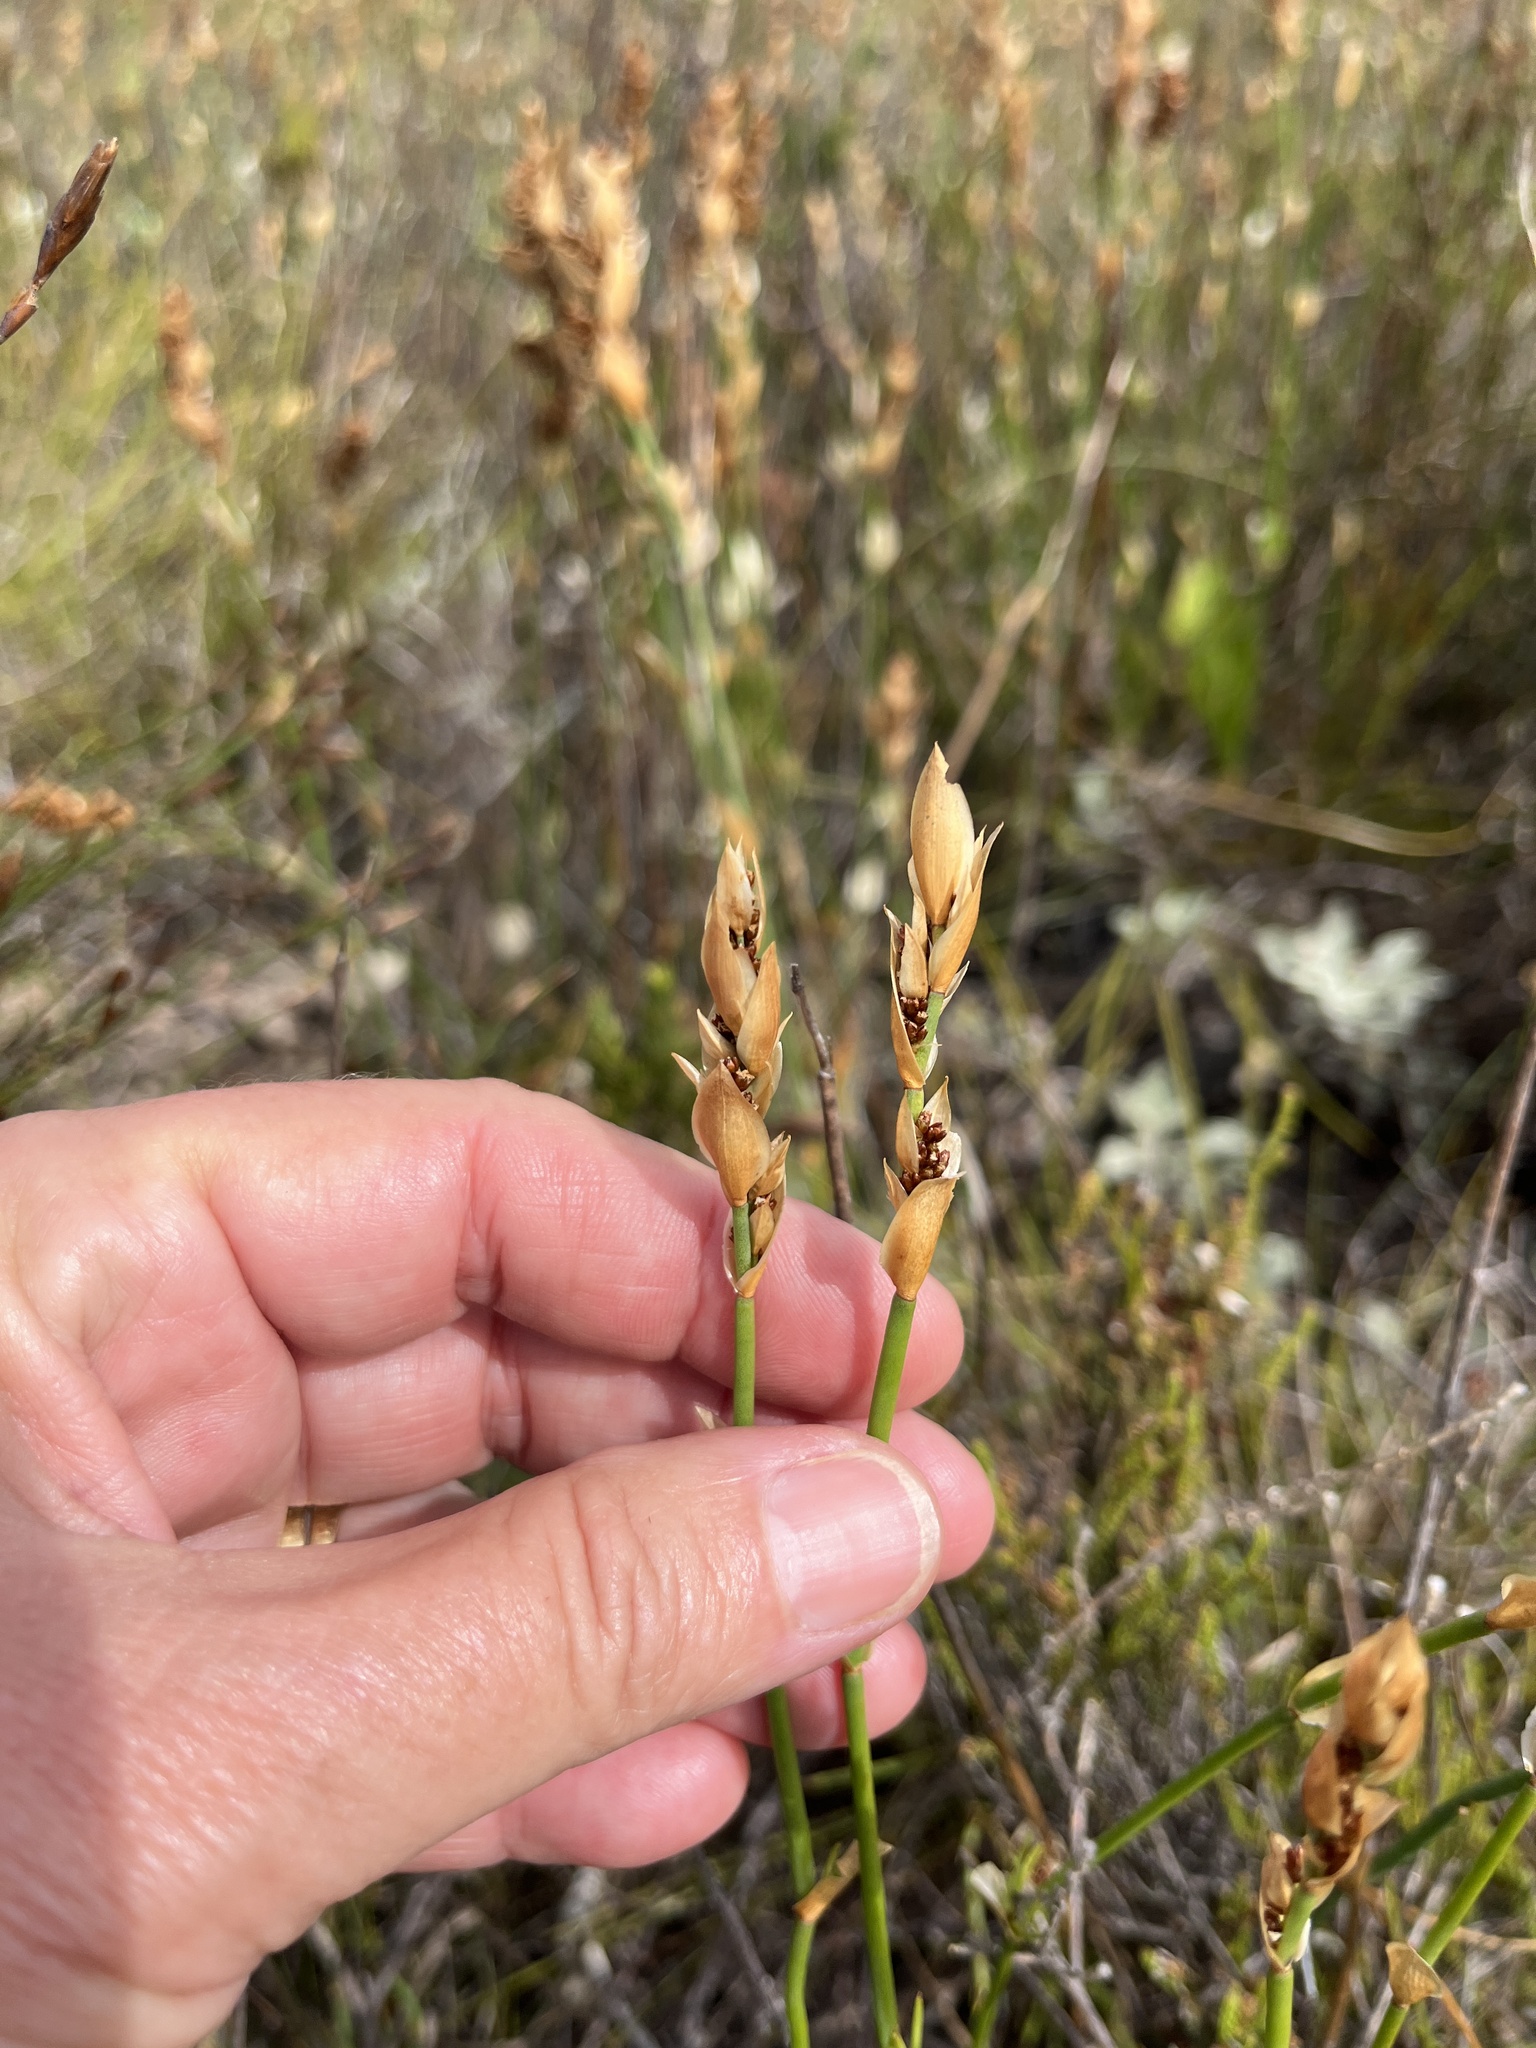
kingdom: Plantae
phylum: Tracheophyta
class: Liliopsida
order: Poales
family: Restionaceae
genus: Elegia
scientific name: Elegia extensa
